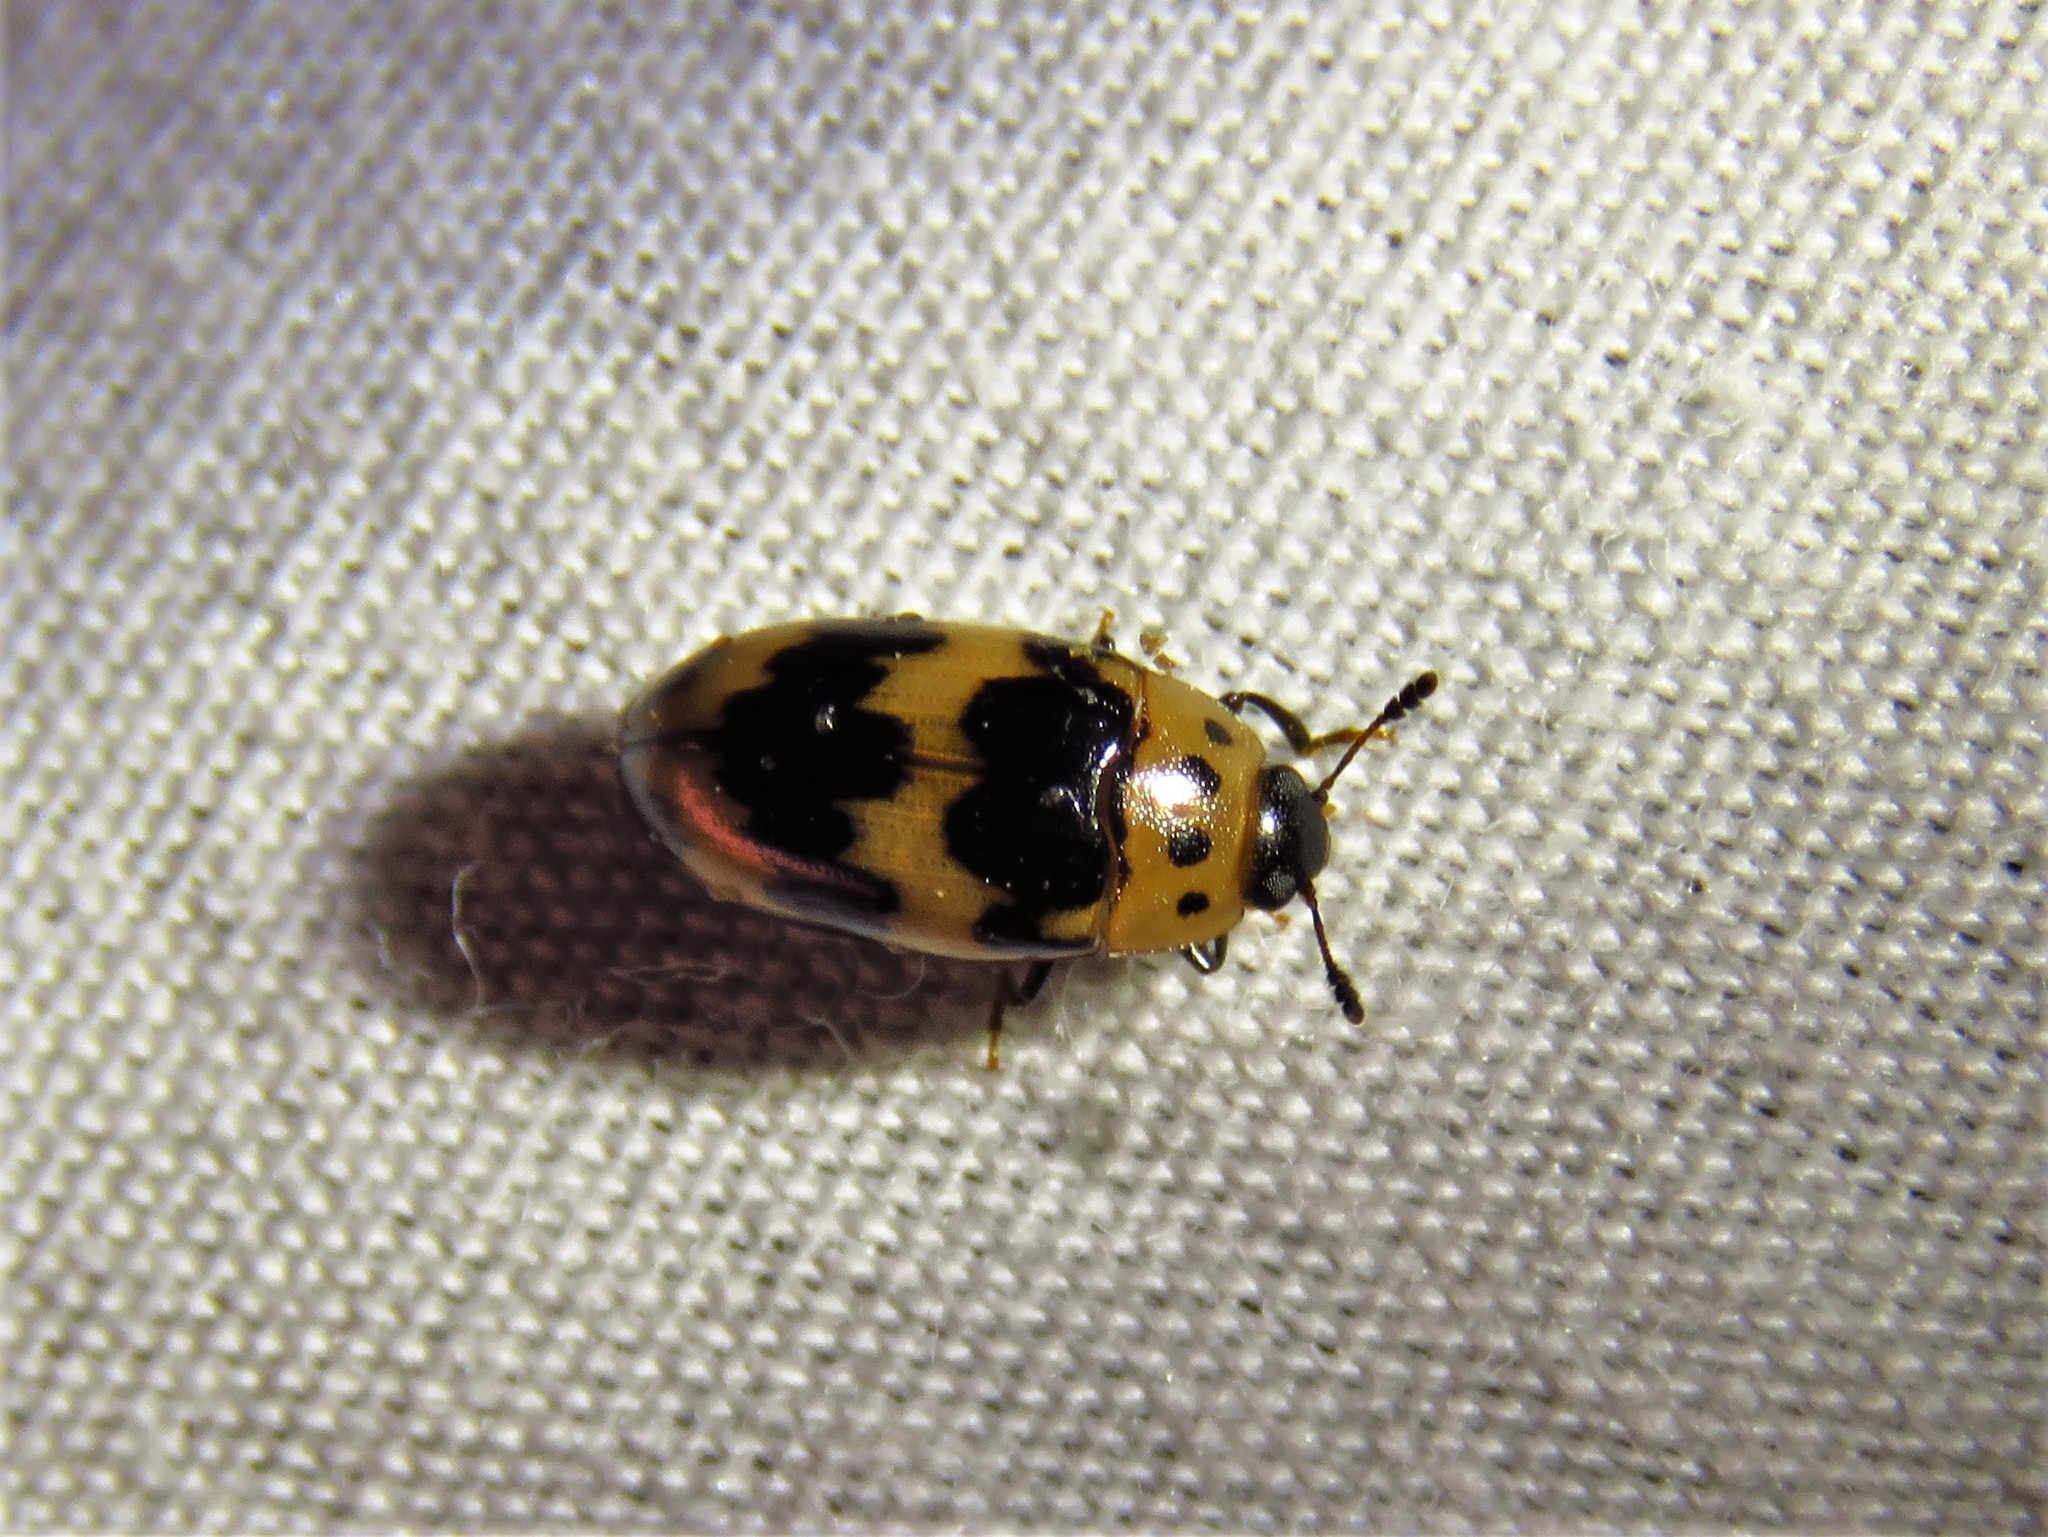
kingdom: Animalia
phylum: Arthropoda
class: Insecta
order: Coleoptera
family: Erotylidae
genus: Ischyrus
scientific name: Ischyrus quadripunctatus
